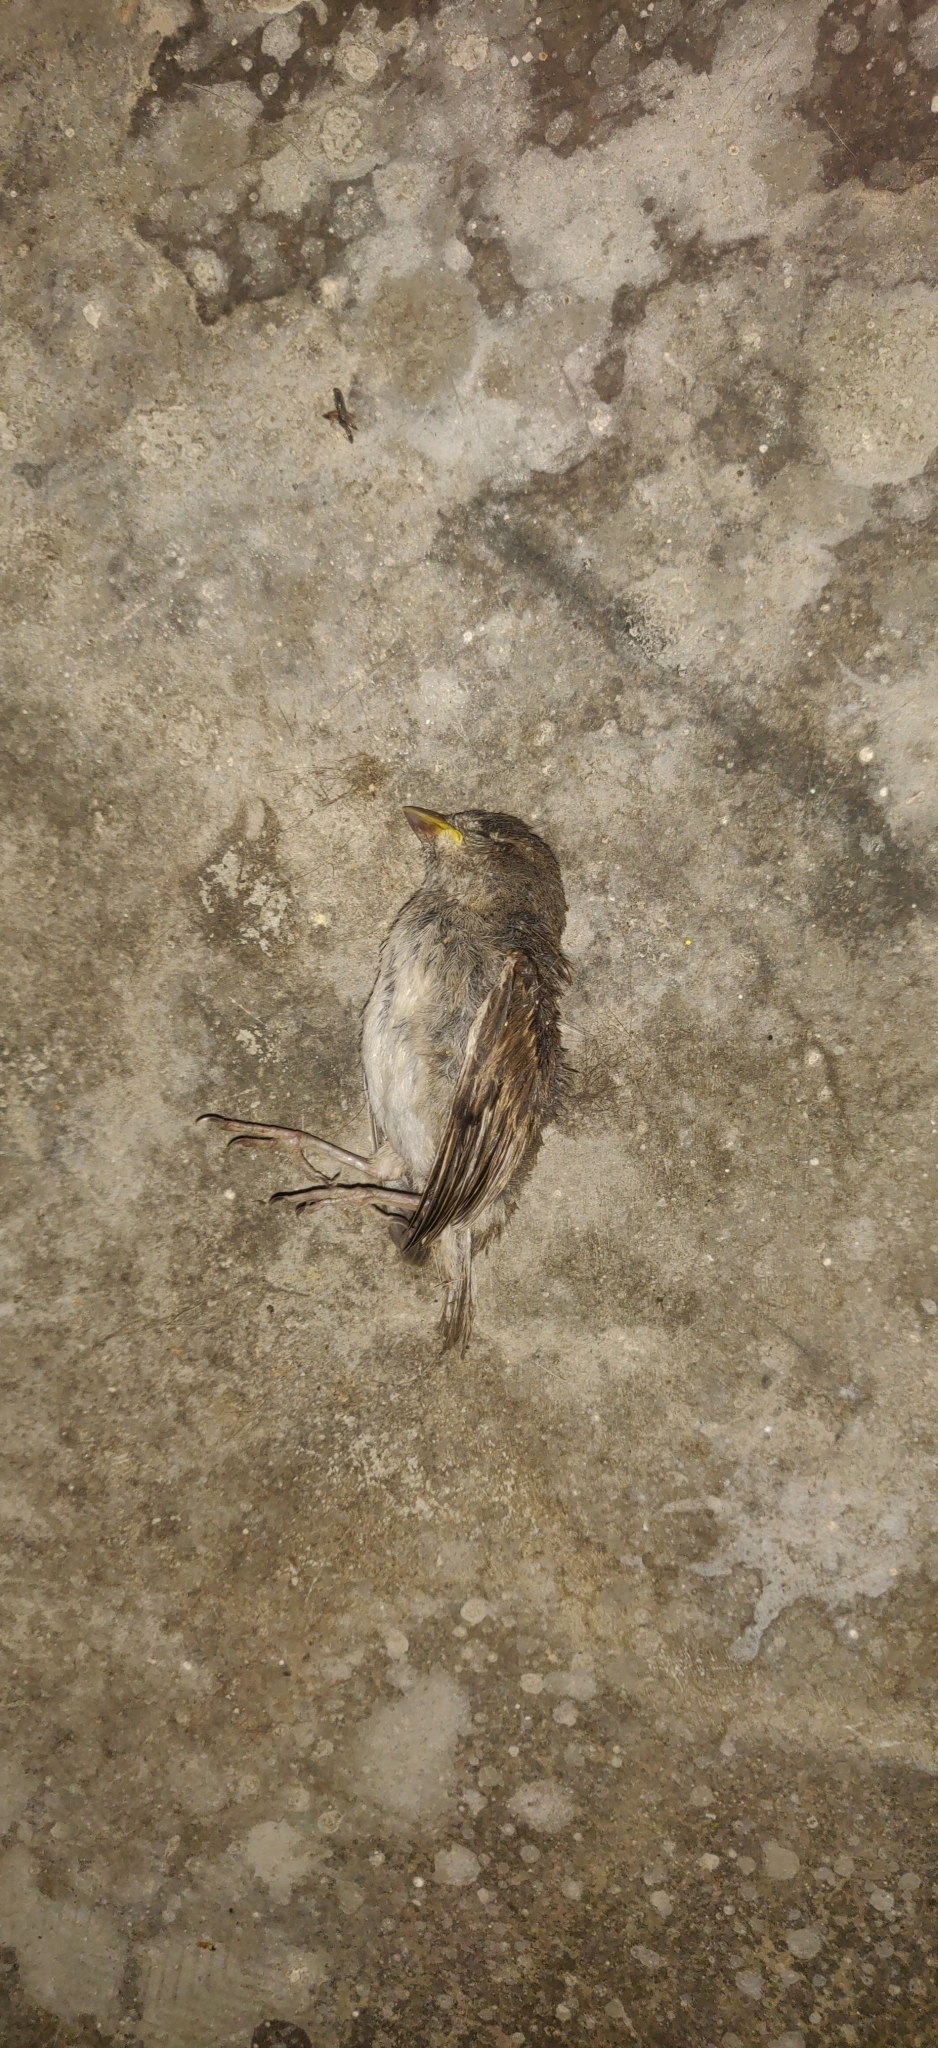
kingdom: Animalia
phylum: Chordata
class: Aves
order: Passeriformes
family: Passeridae
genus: Passer
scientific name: Passer domesticus
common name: House sparrow
